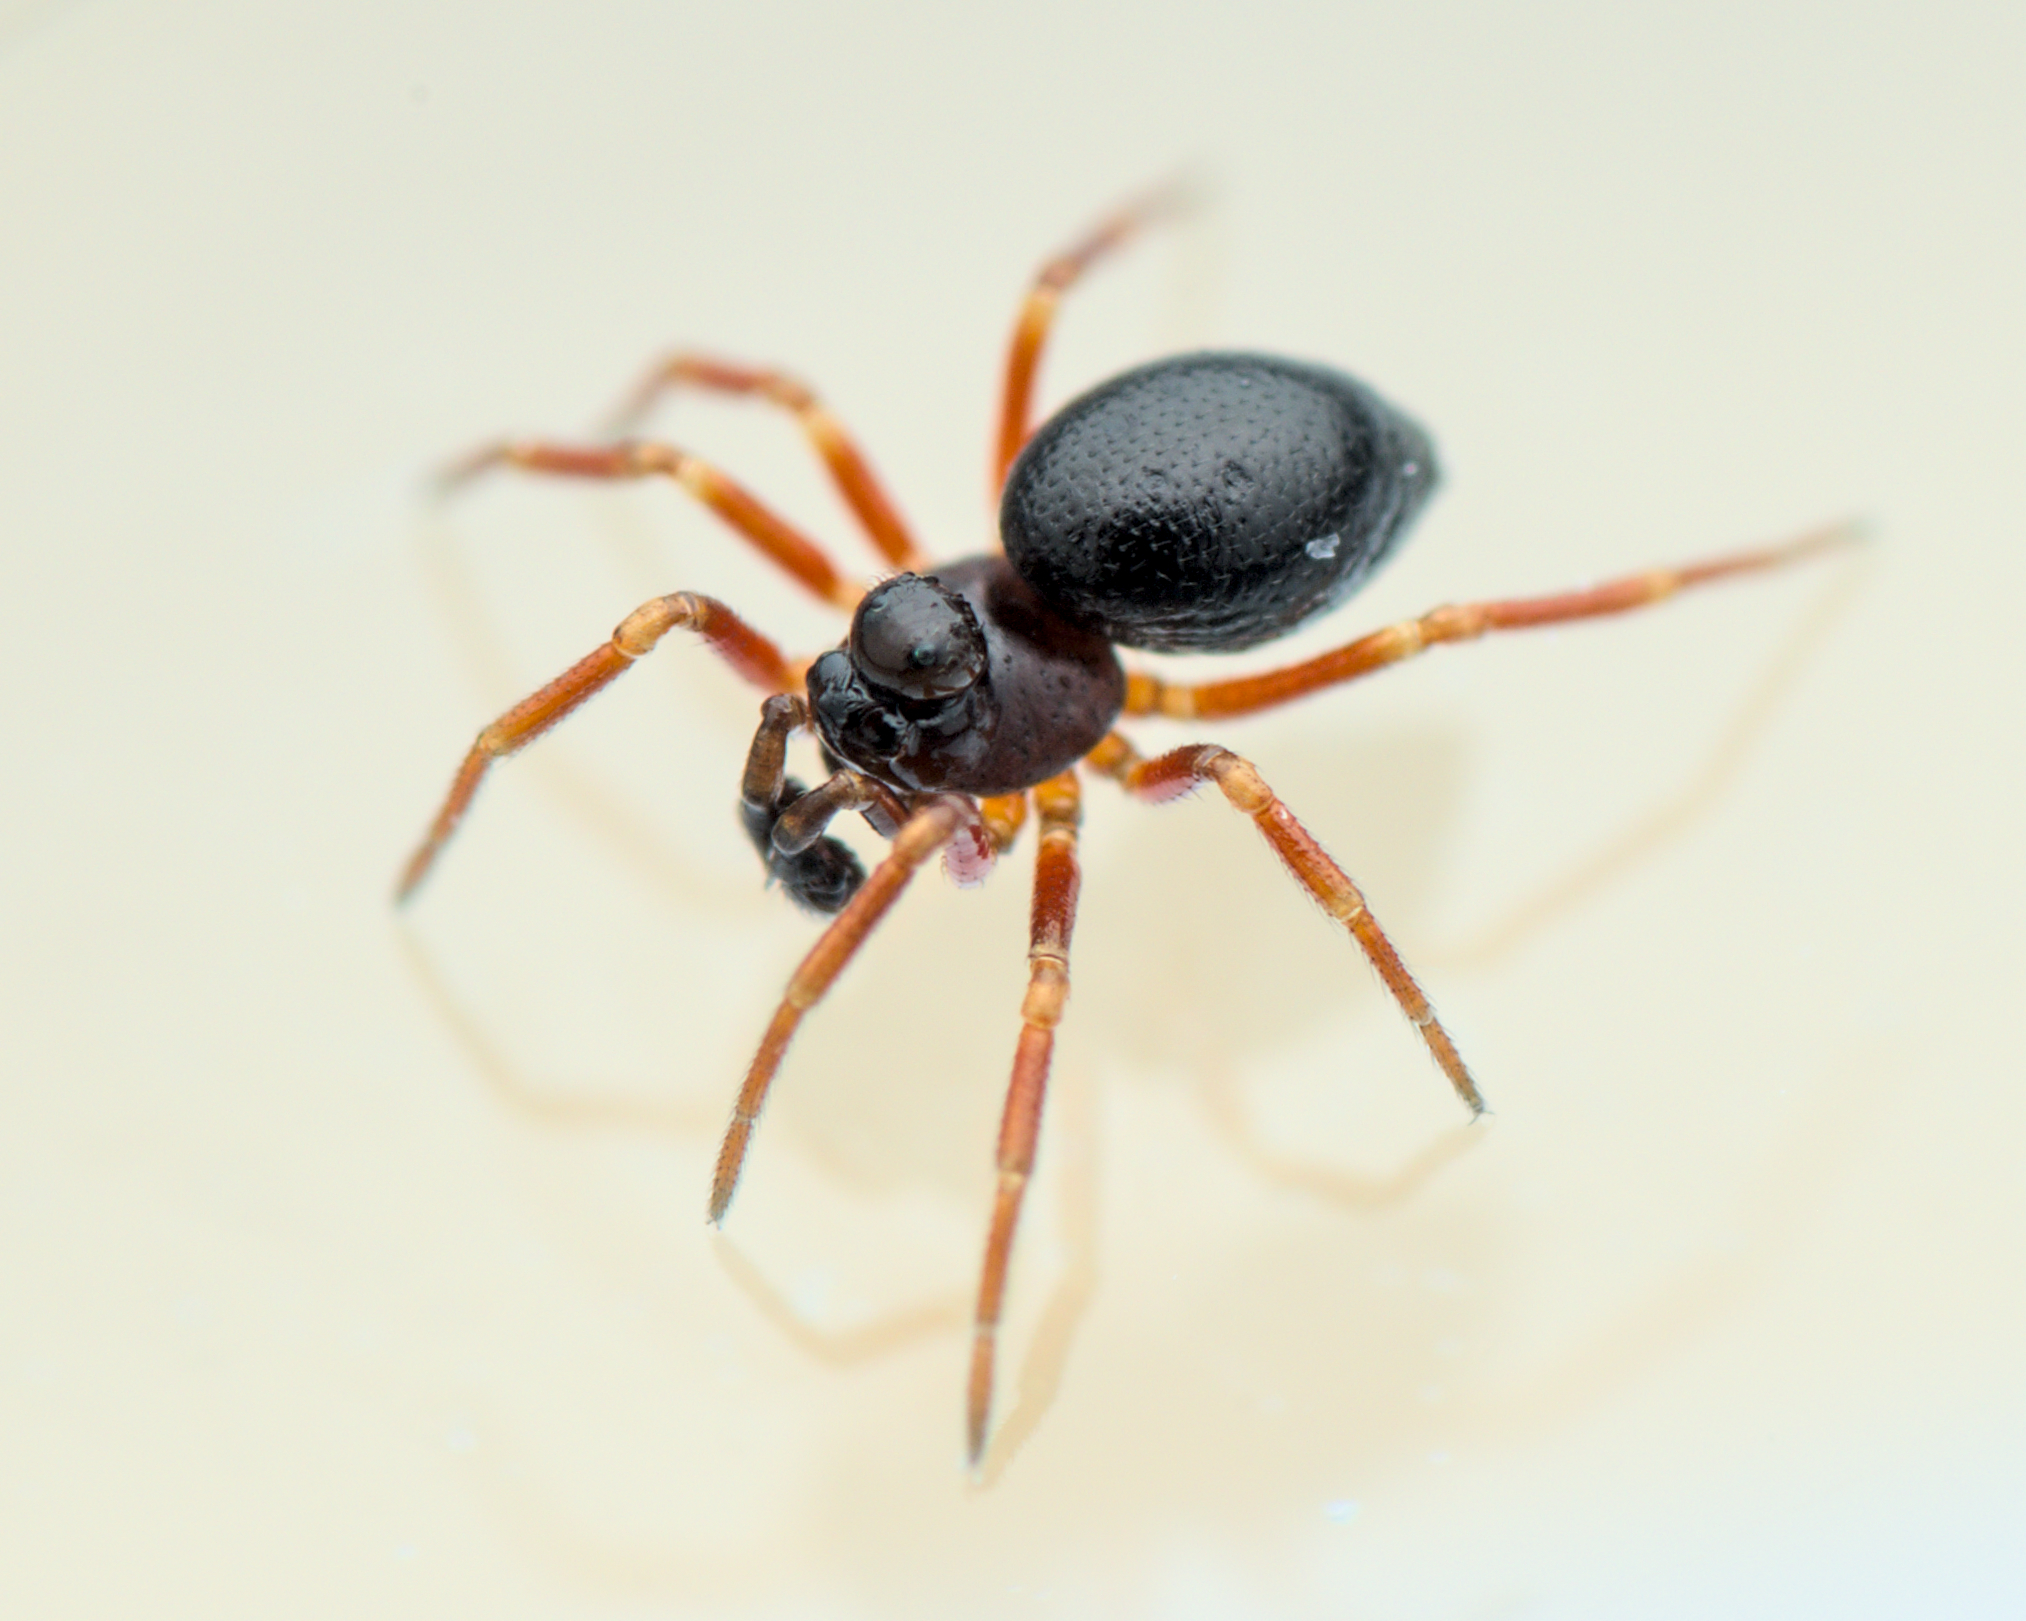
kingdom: Animalia
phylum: Arthropoda
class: Arachnida
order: Araneae
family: Linyphiidae
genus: Pelecopsis
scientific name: Pelecopsis inedita
